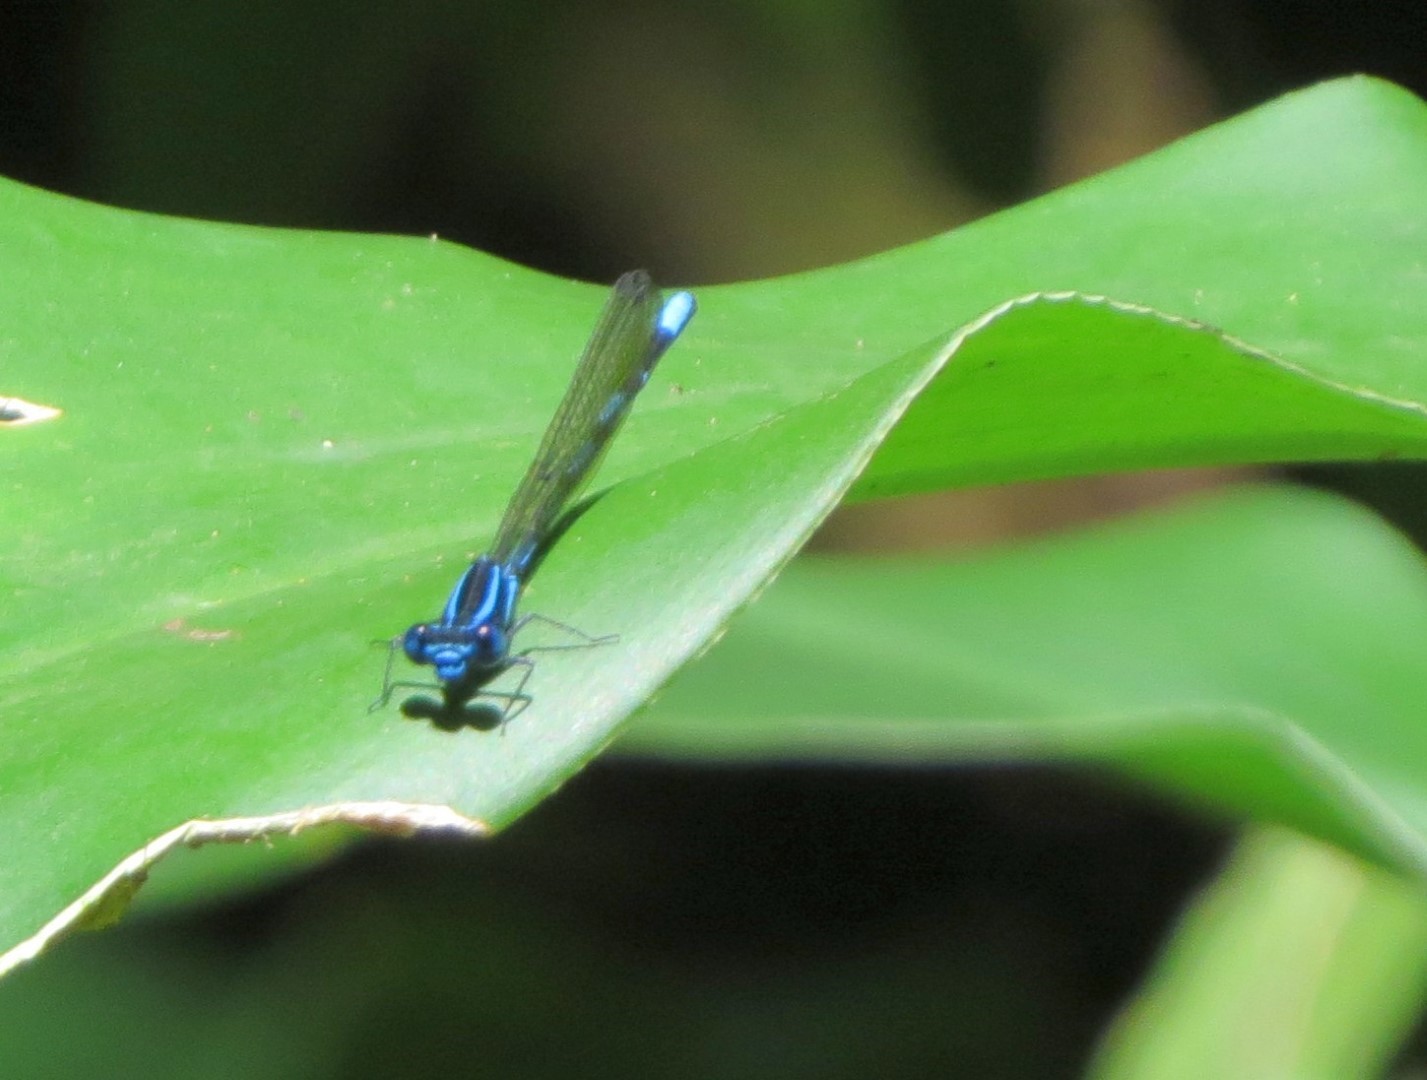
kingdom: Animalia
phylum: Arthropoda
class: Insecta
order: Odonata
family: Coenagrionidae
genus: Argia
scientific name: Argia concinna
